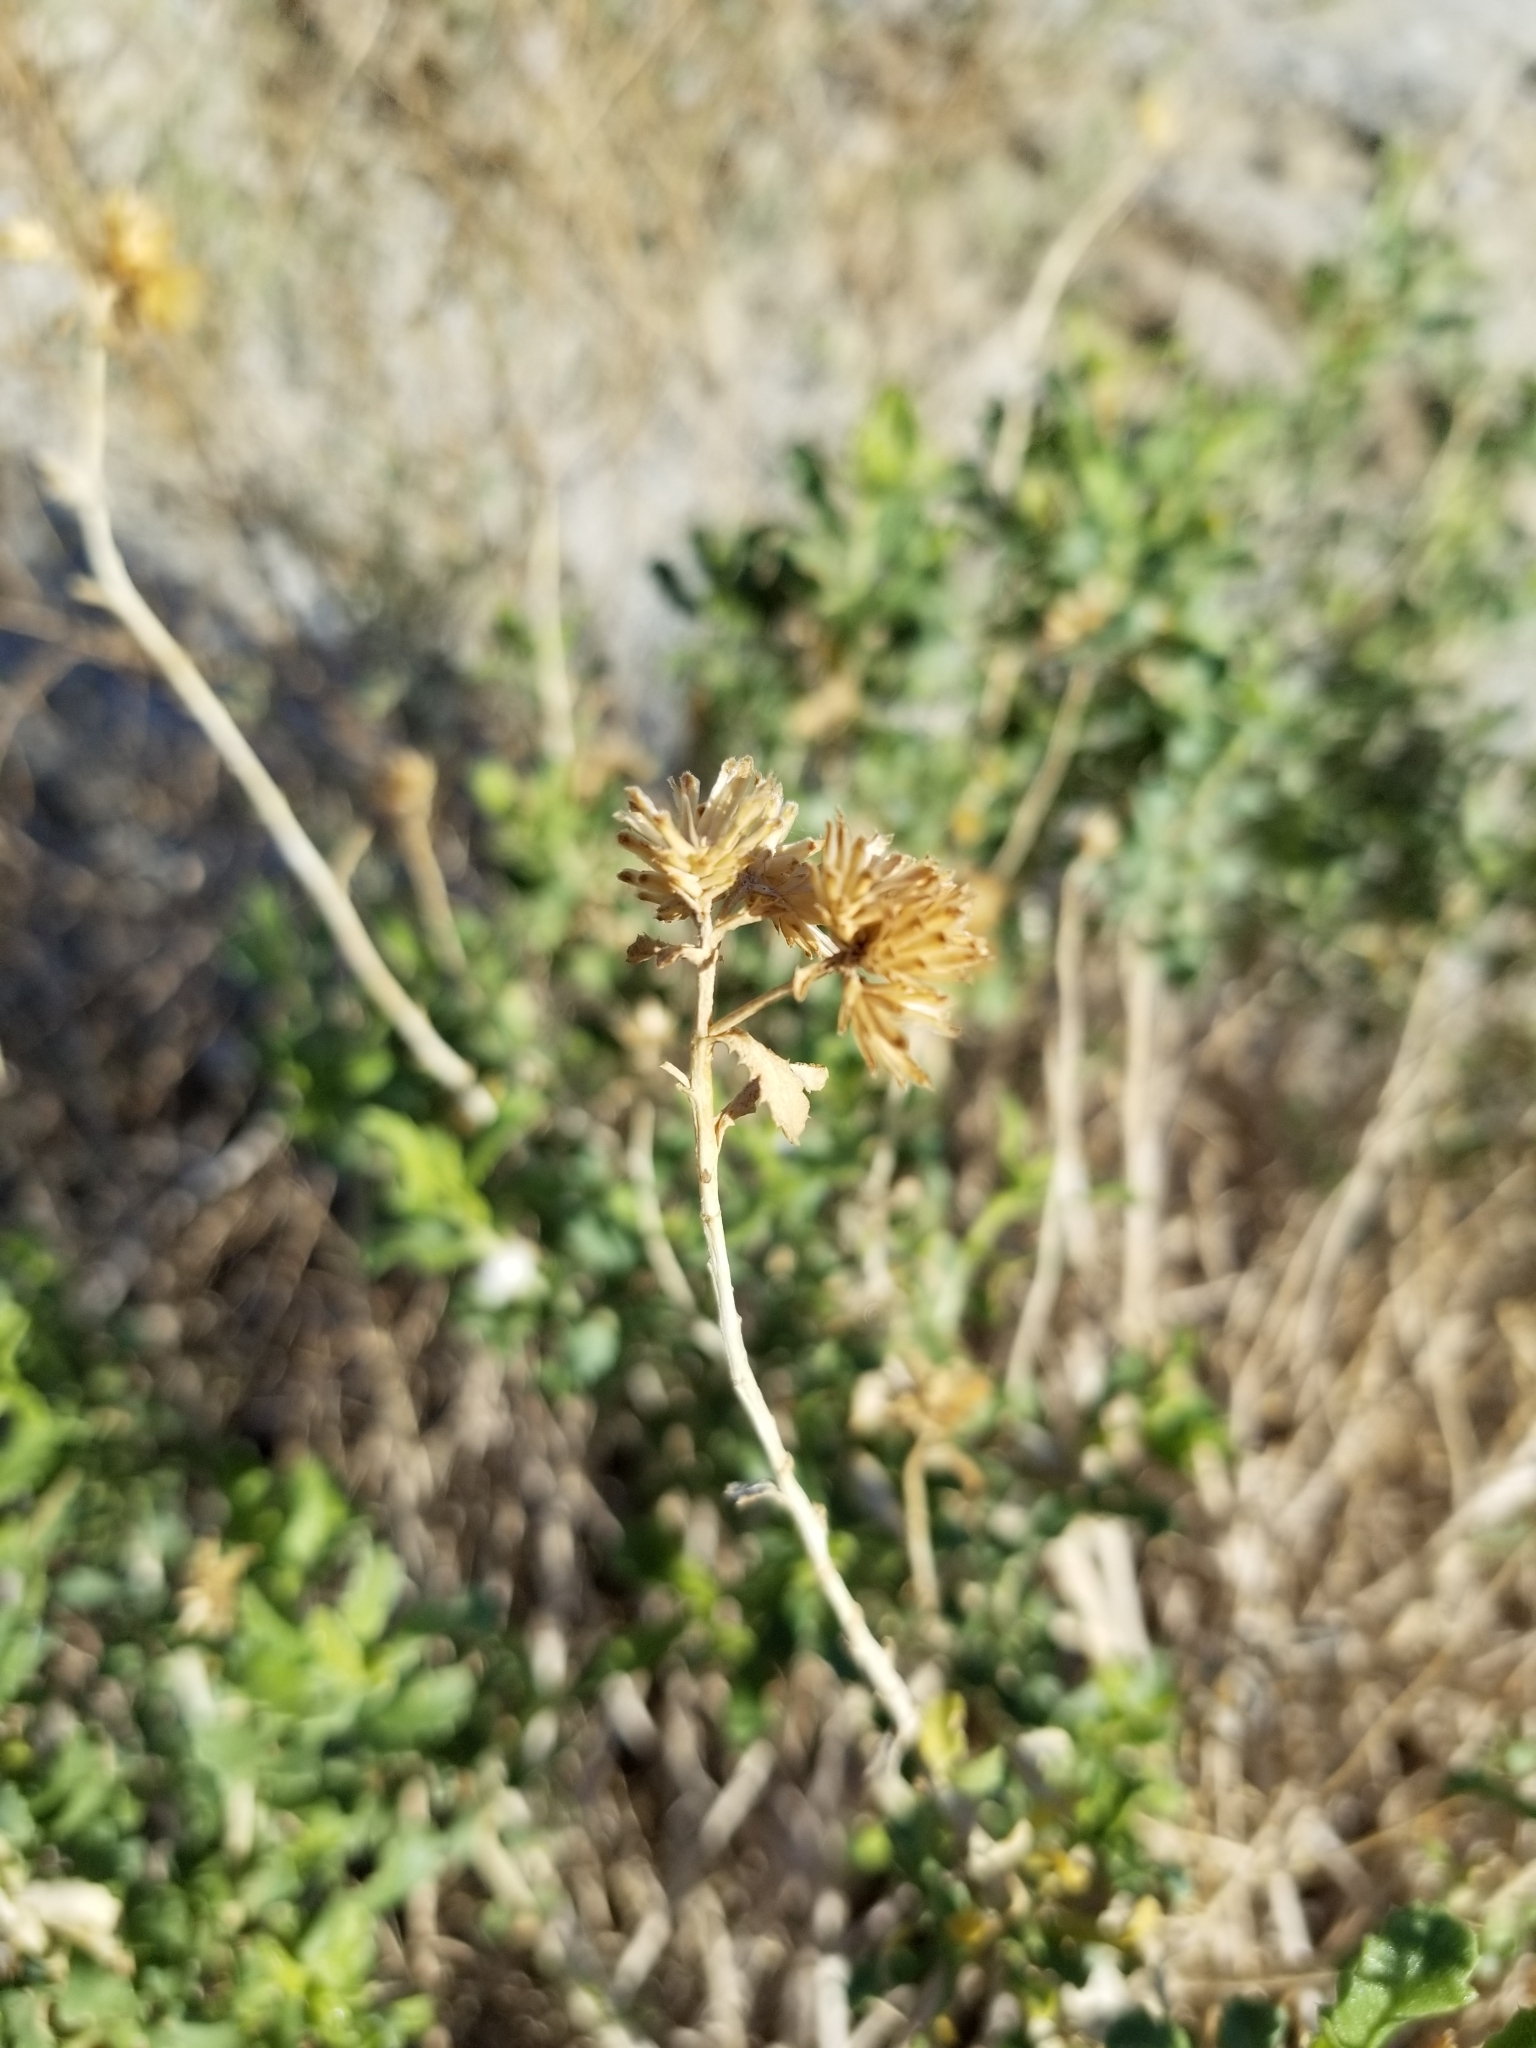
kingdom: Plantae
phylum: Tracheophyta
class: Magnoliopsida
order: Asterales
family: Asteraceae
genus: Isocoma
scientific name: Isocoma acradenia
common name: Alkali jimmyweed
